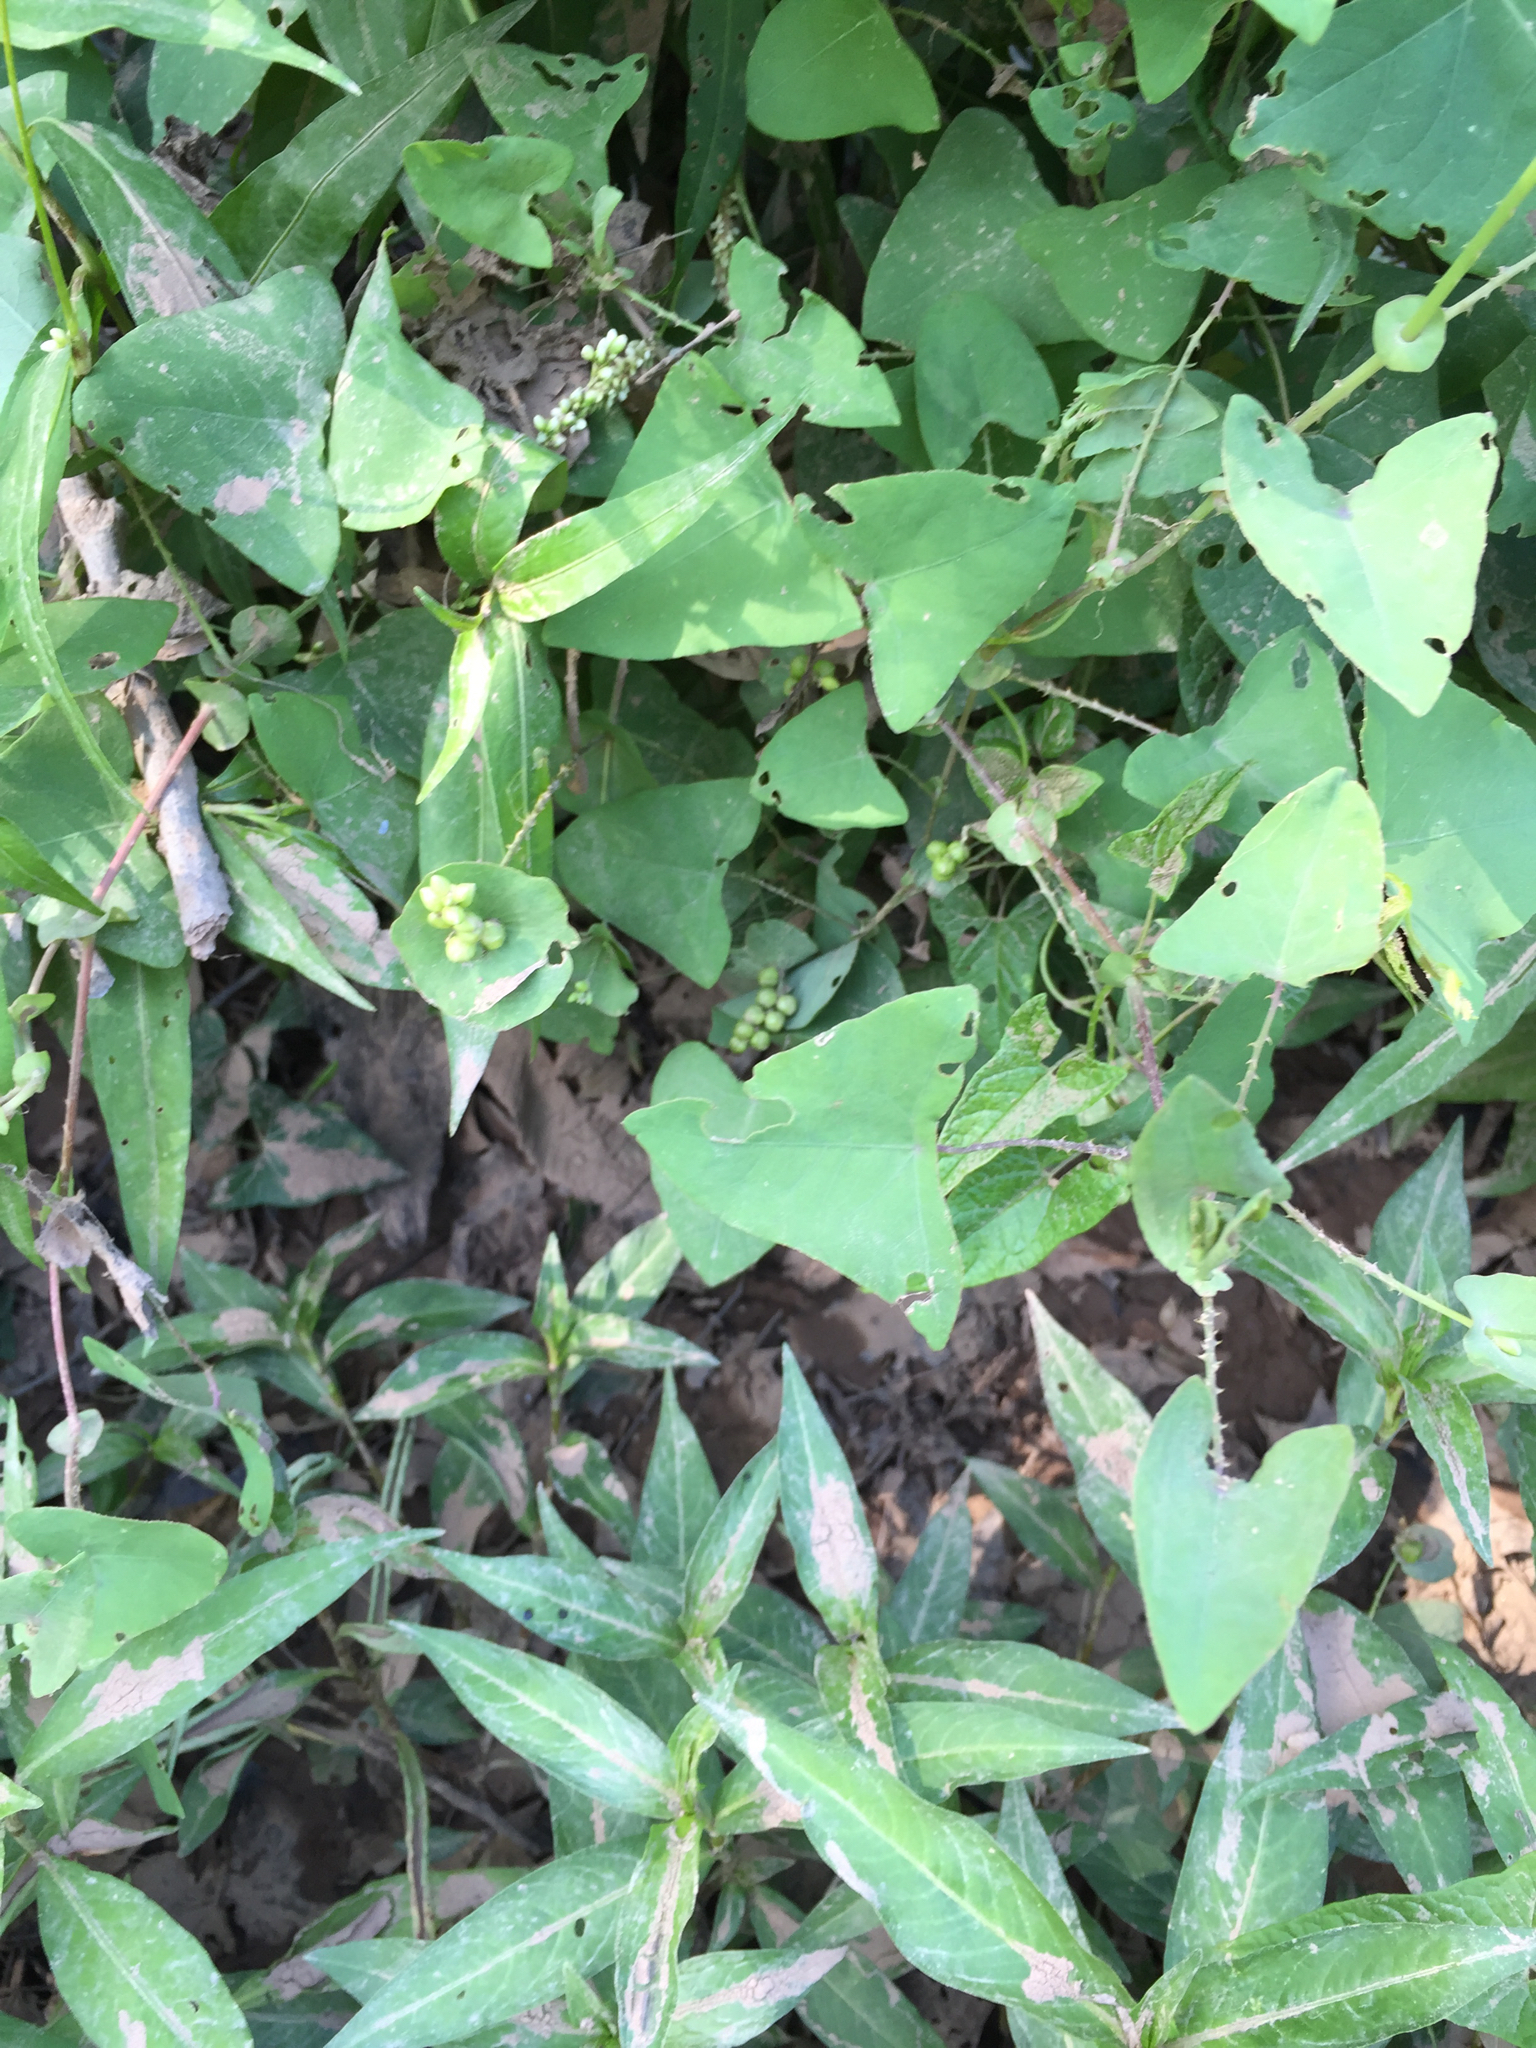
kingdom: Plantae
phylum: Tracheophyta
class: Magnoliopsida
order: Caryophyllales
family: Polygonaceae
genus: Persicaria
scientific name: Persicaria perfoliata
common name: Asiatic tearthumb
